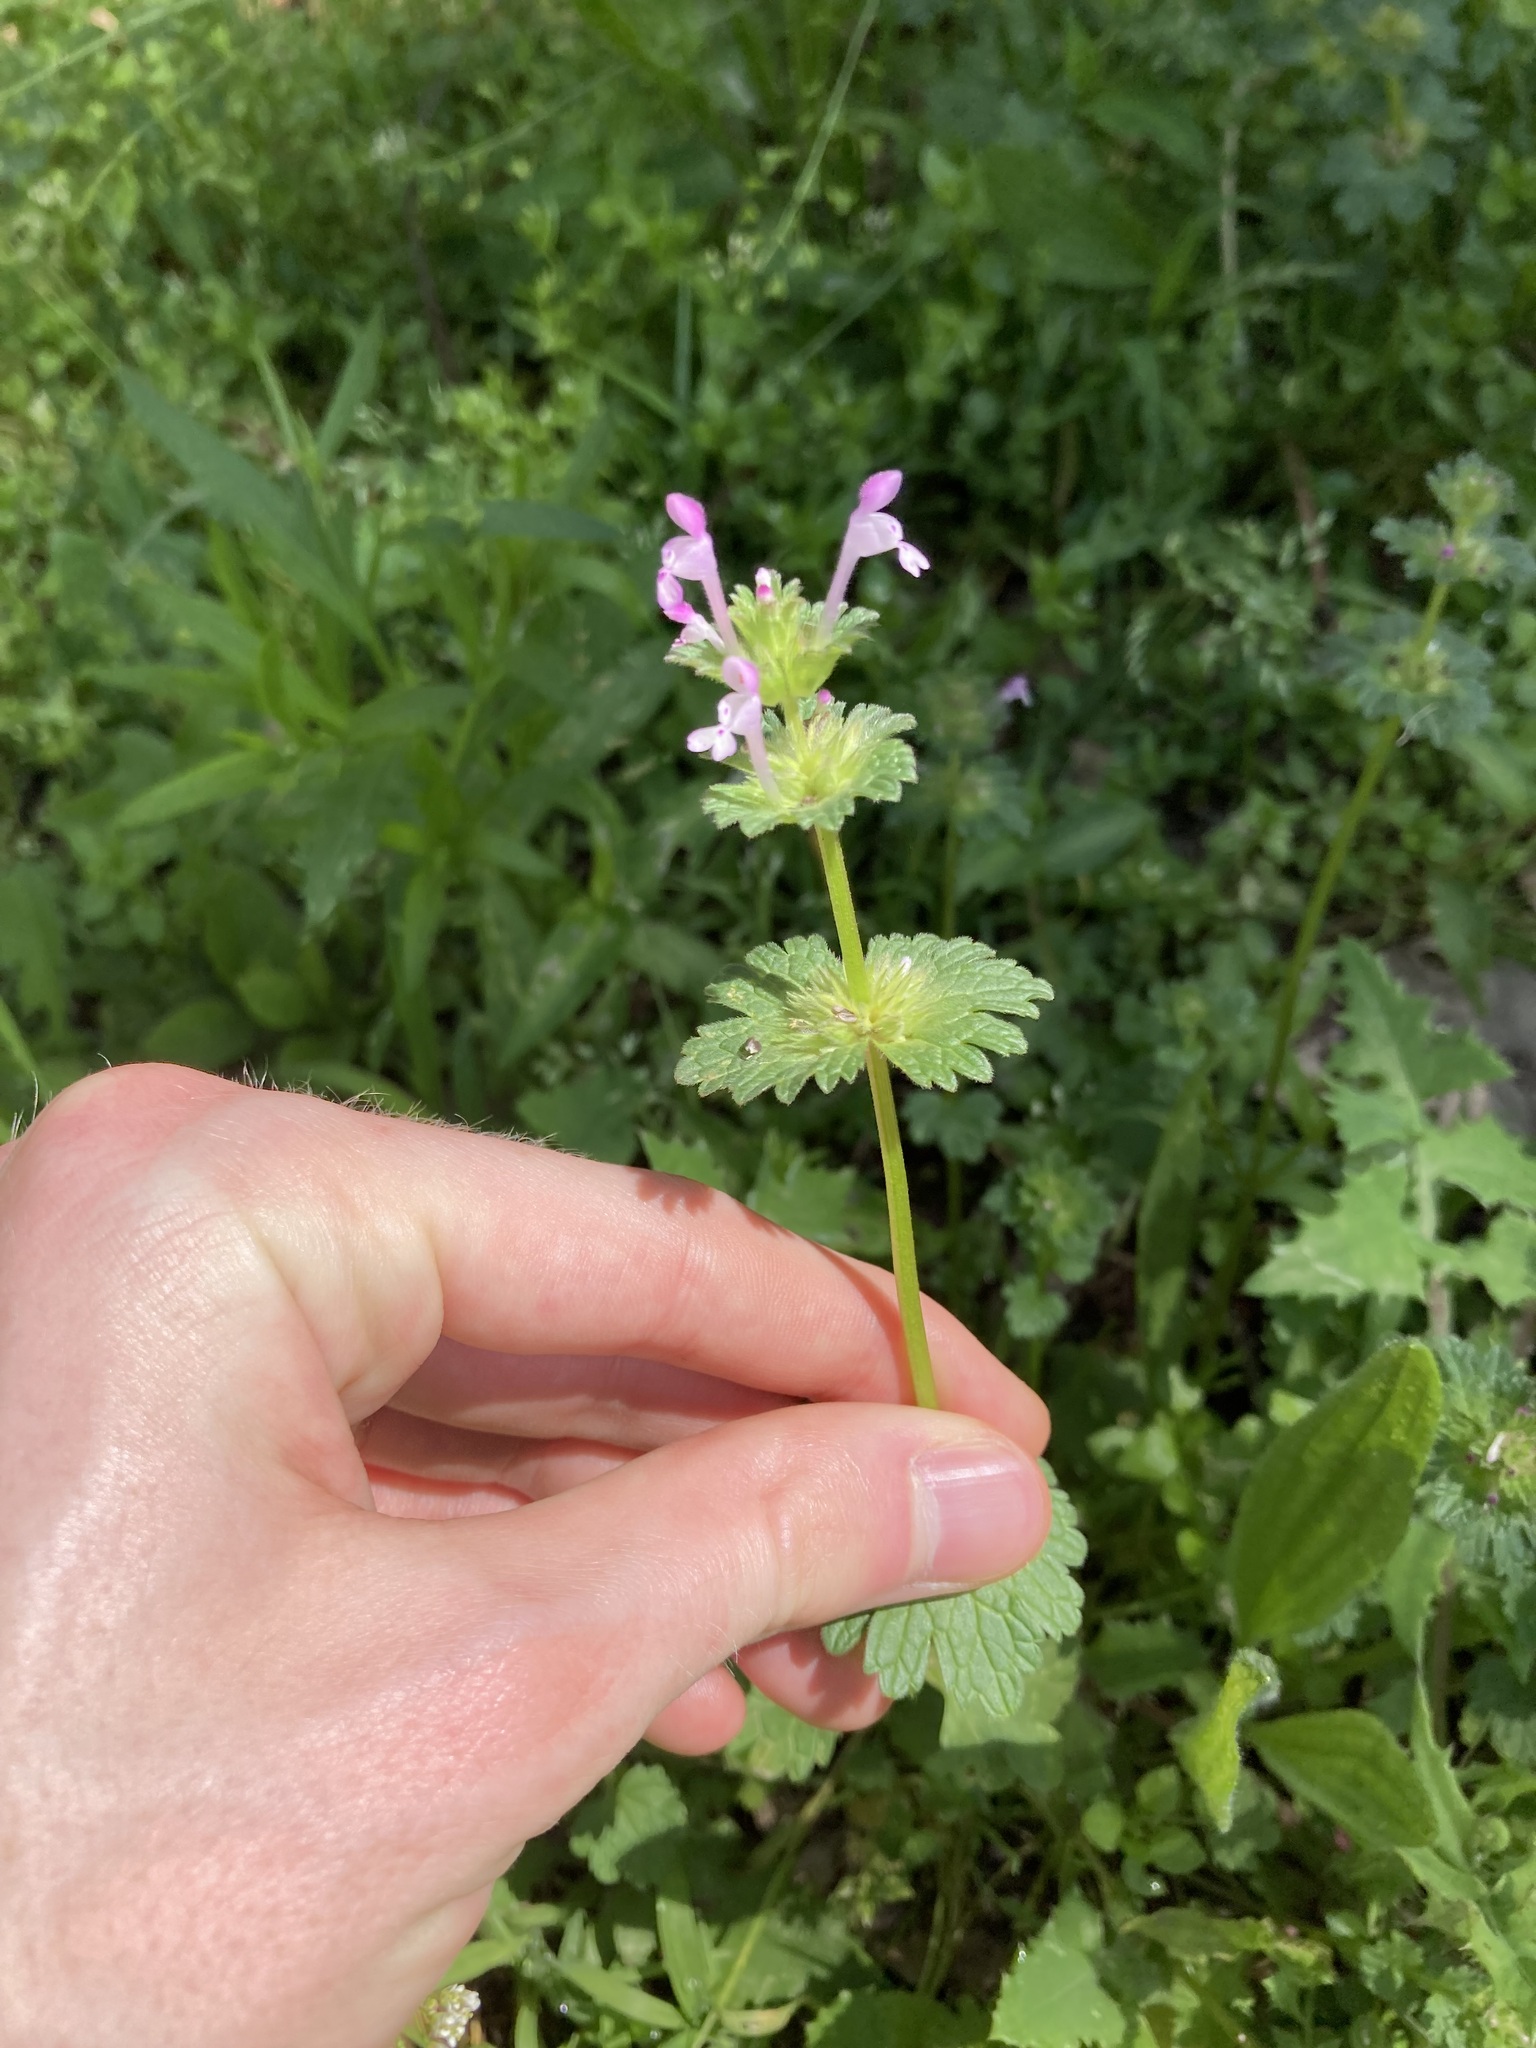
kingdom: Plantae
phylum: Tracheophyta
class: Magnoliopsida
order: Lamiales
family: Lamiaceae
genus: Lamium
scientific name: Lamium amplexicaule
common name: Henbit dead-nettle
